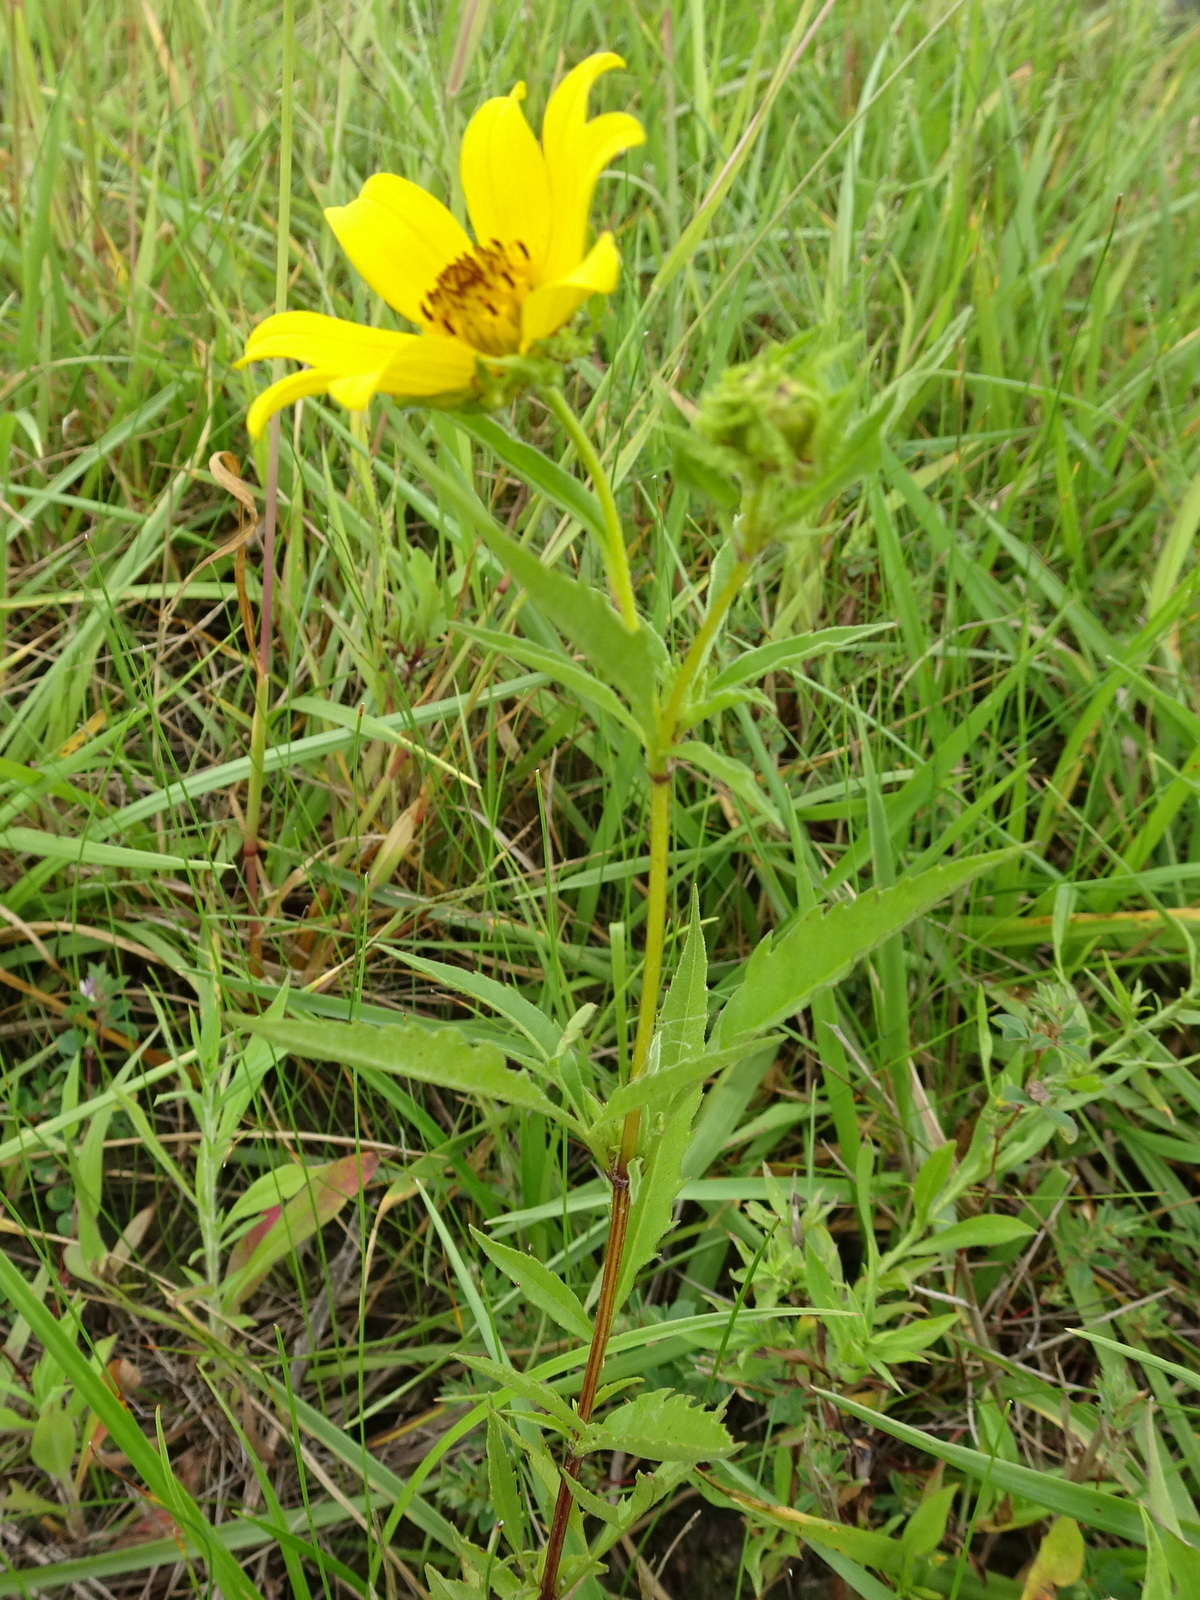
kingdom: Plantae
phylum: Tracheophyta
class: Magnoliopsida
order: Asterales
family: Asteraceae
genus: Bidens
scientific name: Bidens polylepis
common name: Awnless beggarticks
